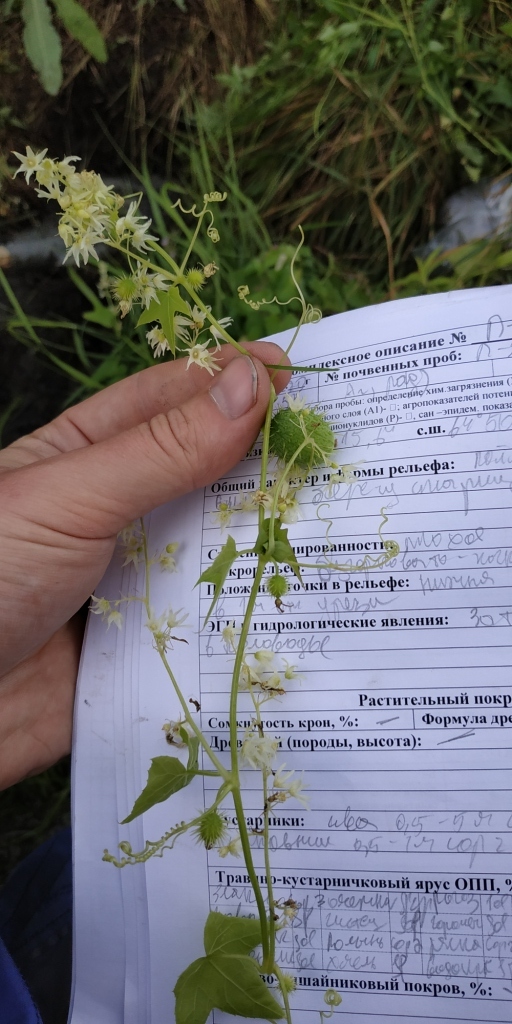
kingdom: Plantae
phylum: Tracheophyta
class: Magnoliopsida
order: Cucurbitales
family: Cucurbitaceae
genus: Echinocystis
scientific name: Echinocystis lobata
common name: Wild cucumber
